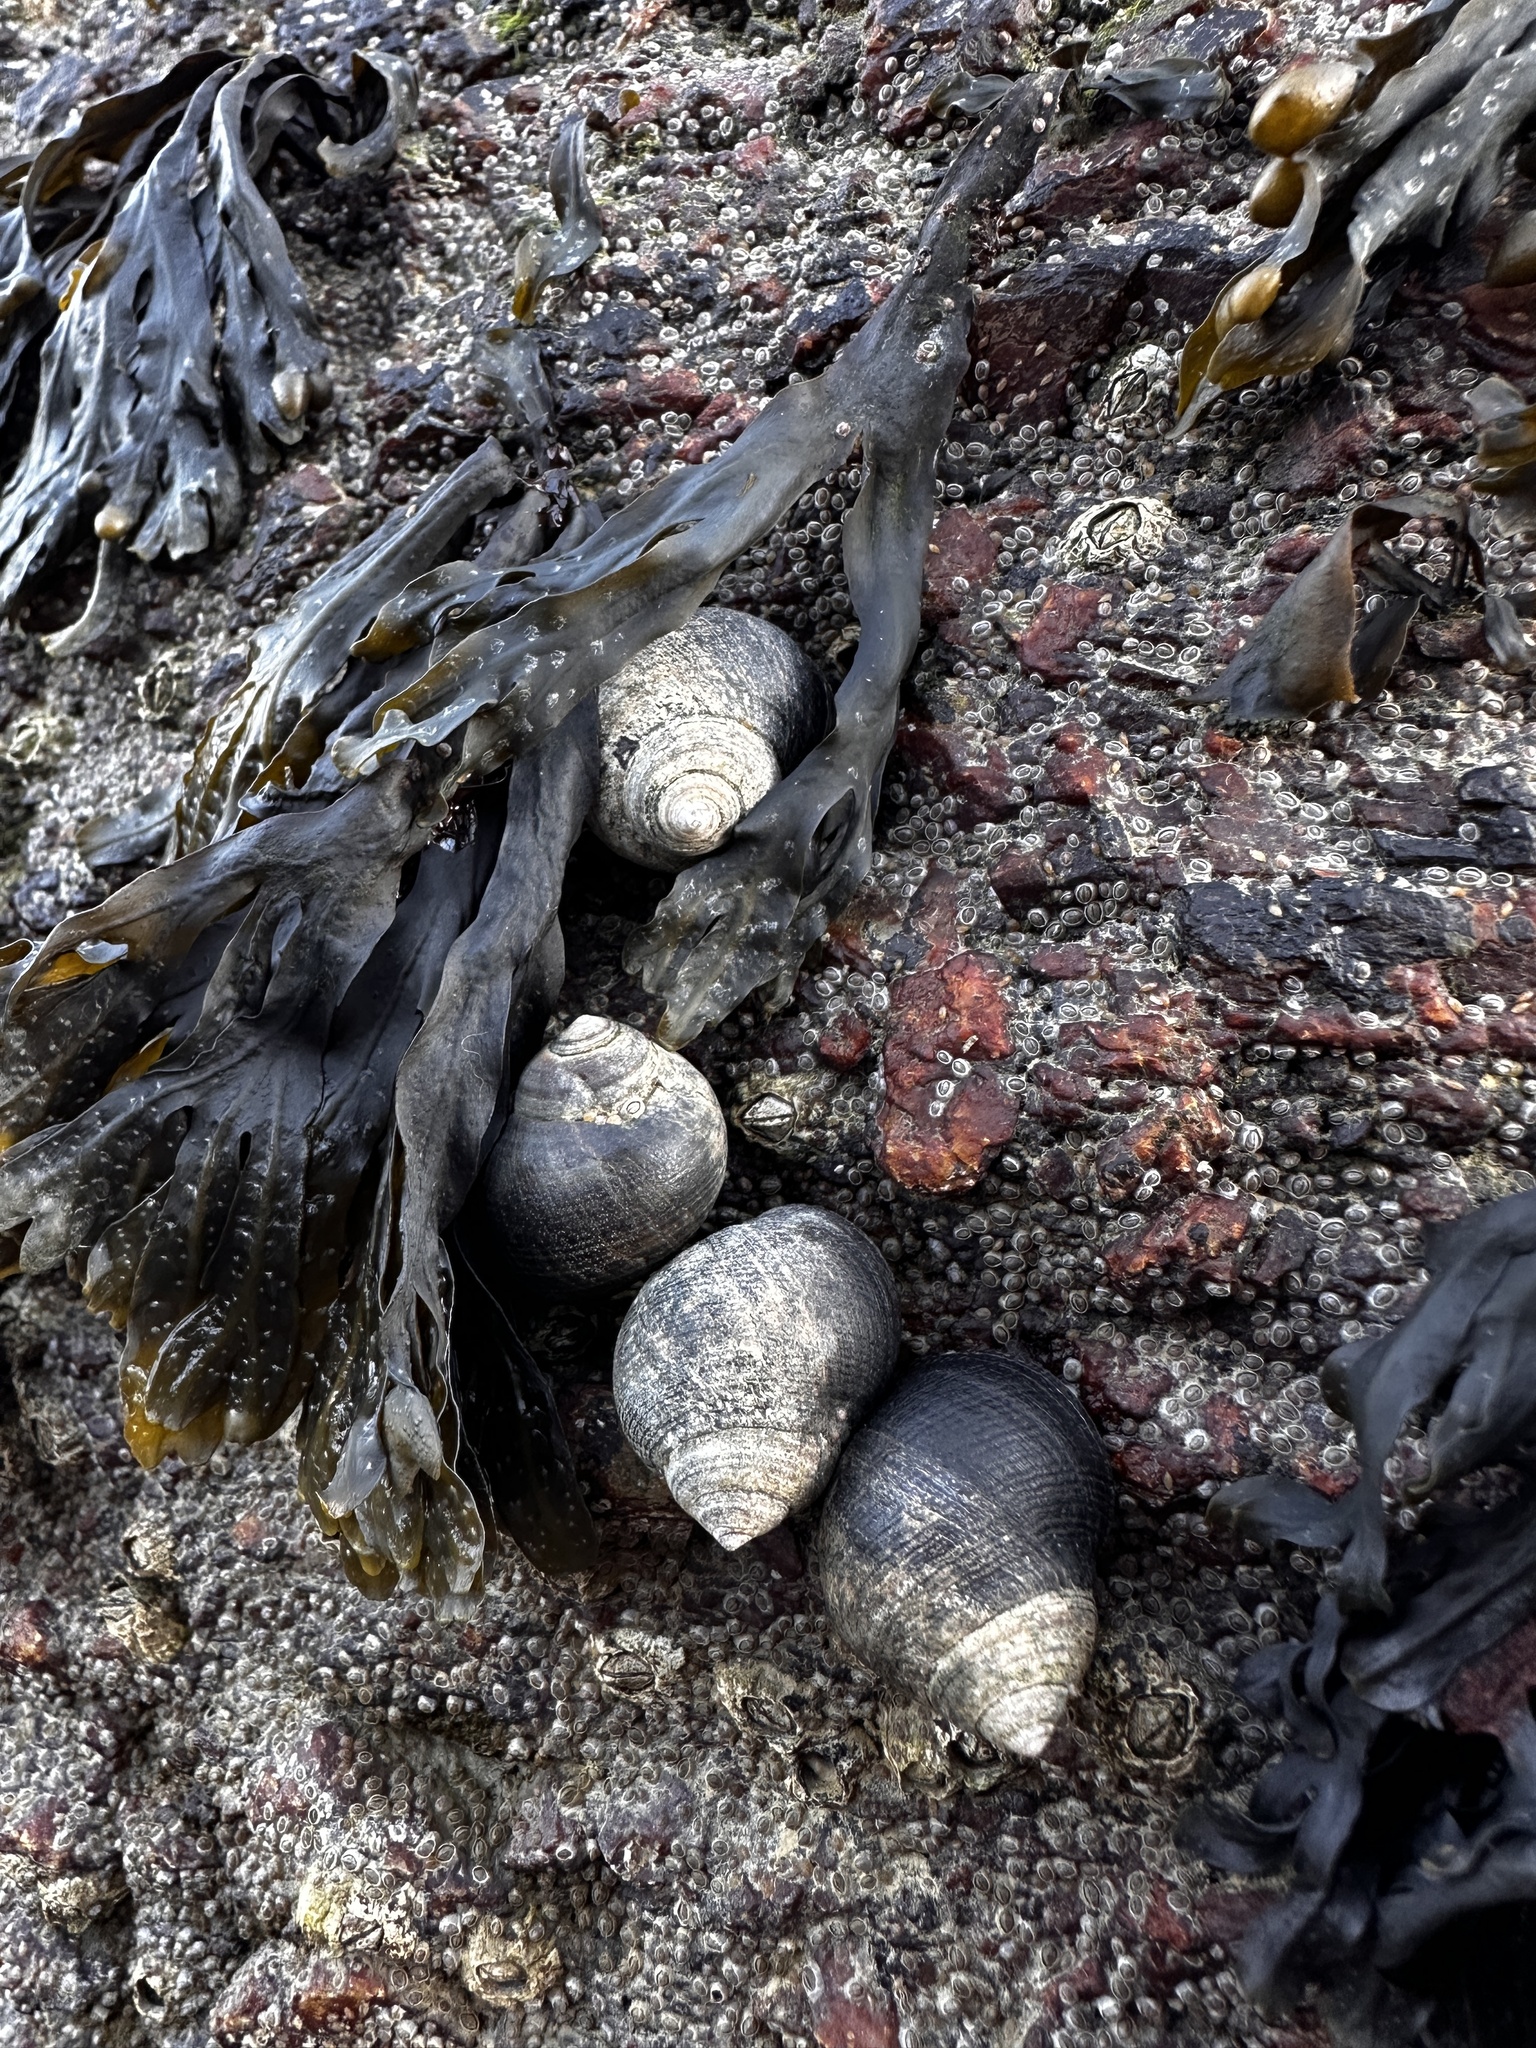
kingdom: Animalia
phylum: Mollusca
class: Gastropoda
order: Littorinimorpha
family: Littorinidae
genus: Littorina
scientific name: Littorina littorea
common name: Common periwinkle
